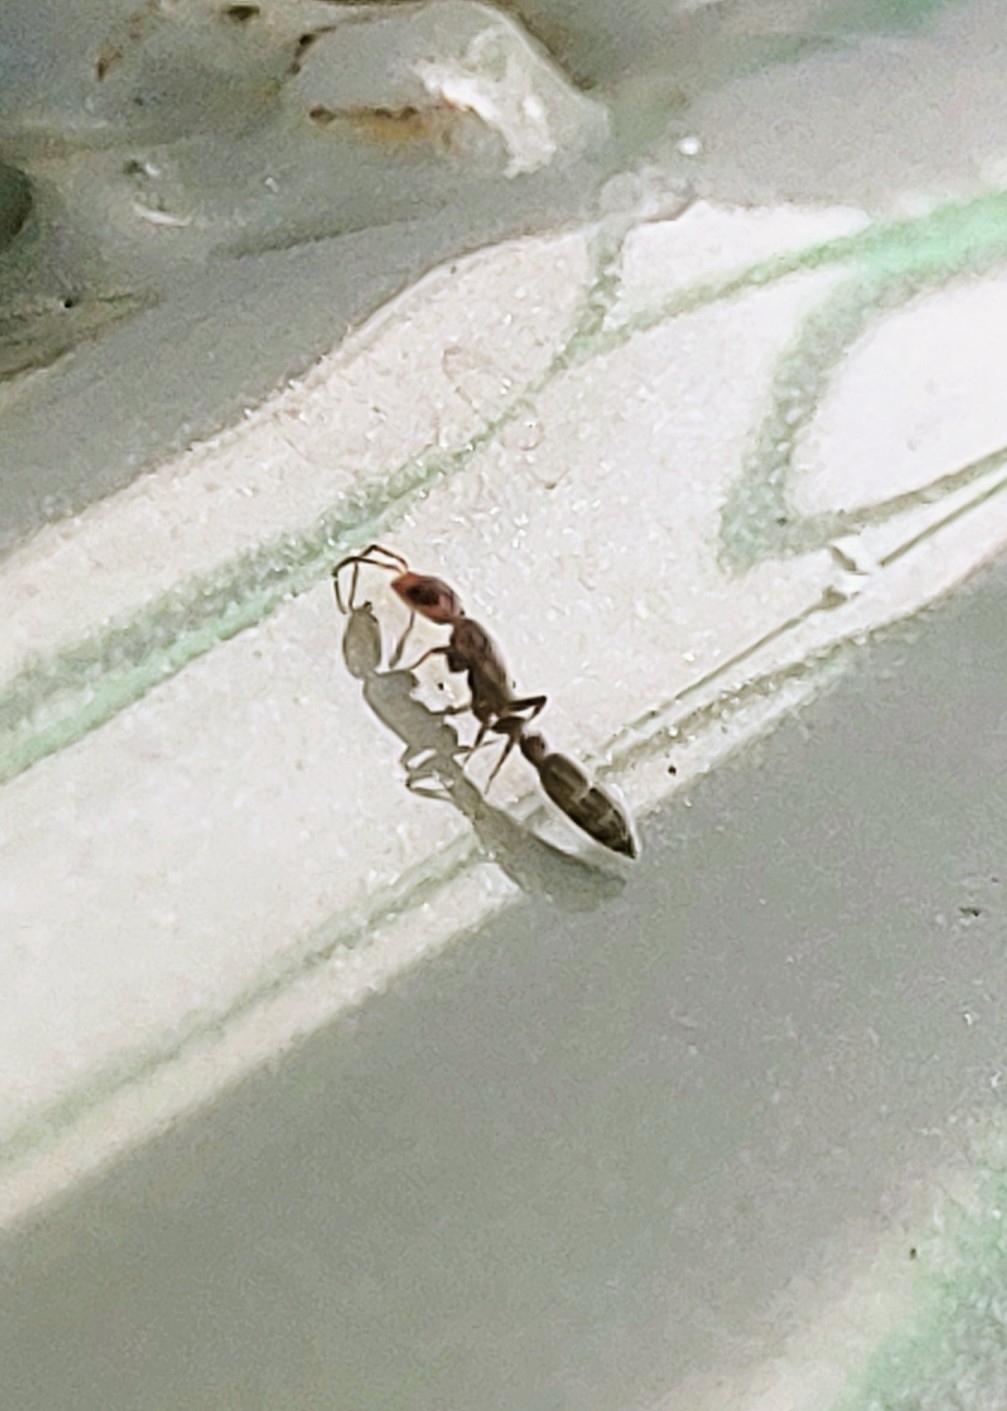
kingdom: Animalia
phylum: Arthropoda
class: Insecta
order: Hymenoptera
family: Formicidae
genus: Pseudomyrmex
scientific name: Pseudomyrmex cubaensis
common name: Ant
